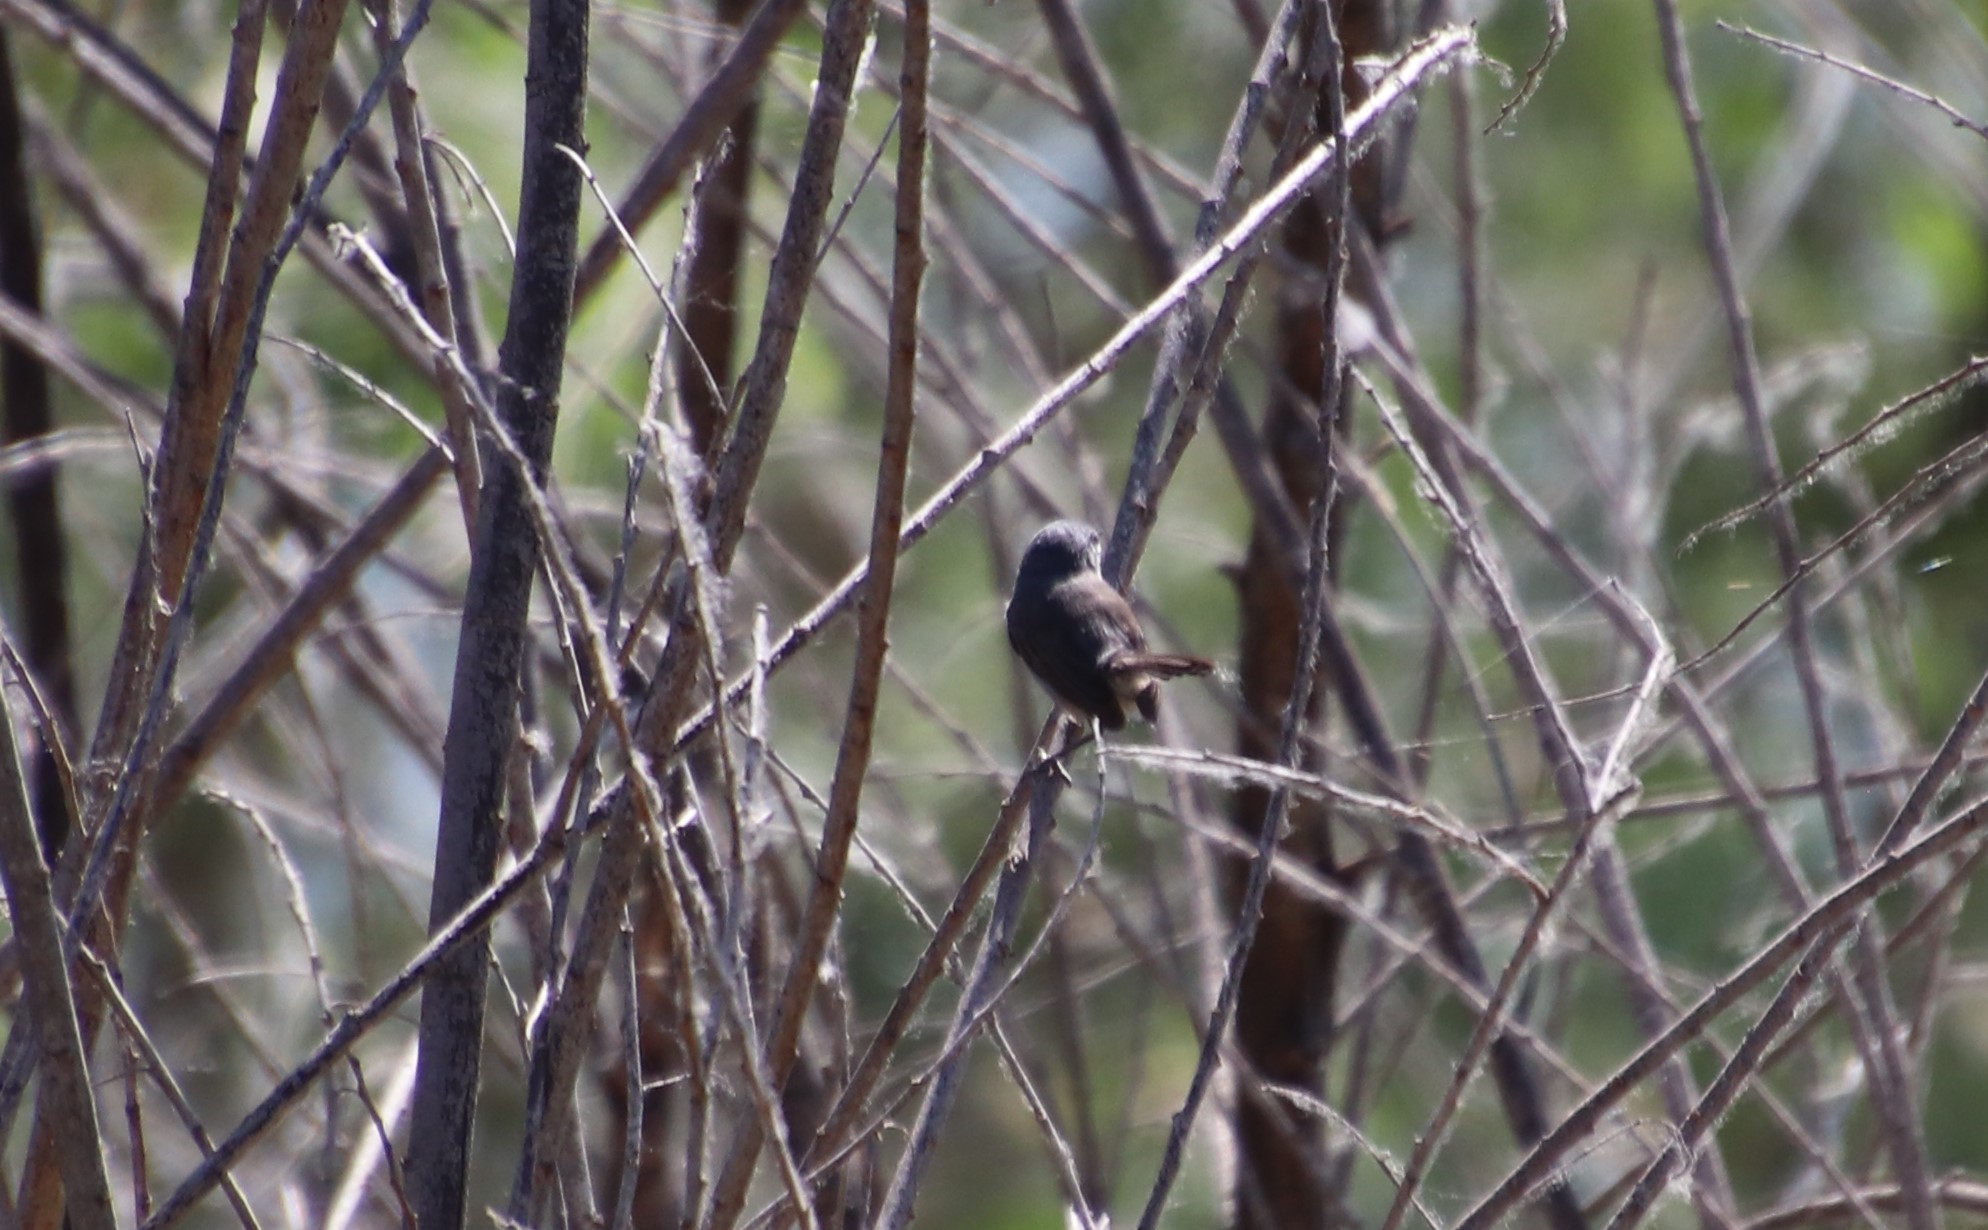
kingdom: Animalia
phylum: Chordata
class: Aves
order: Passeriformes
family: Polioptilidae
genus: Polioptila
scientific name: Polioptila californica
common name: California gnatcatcher
